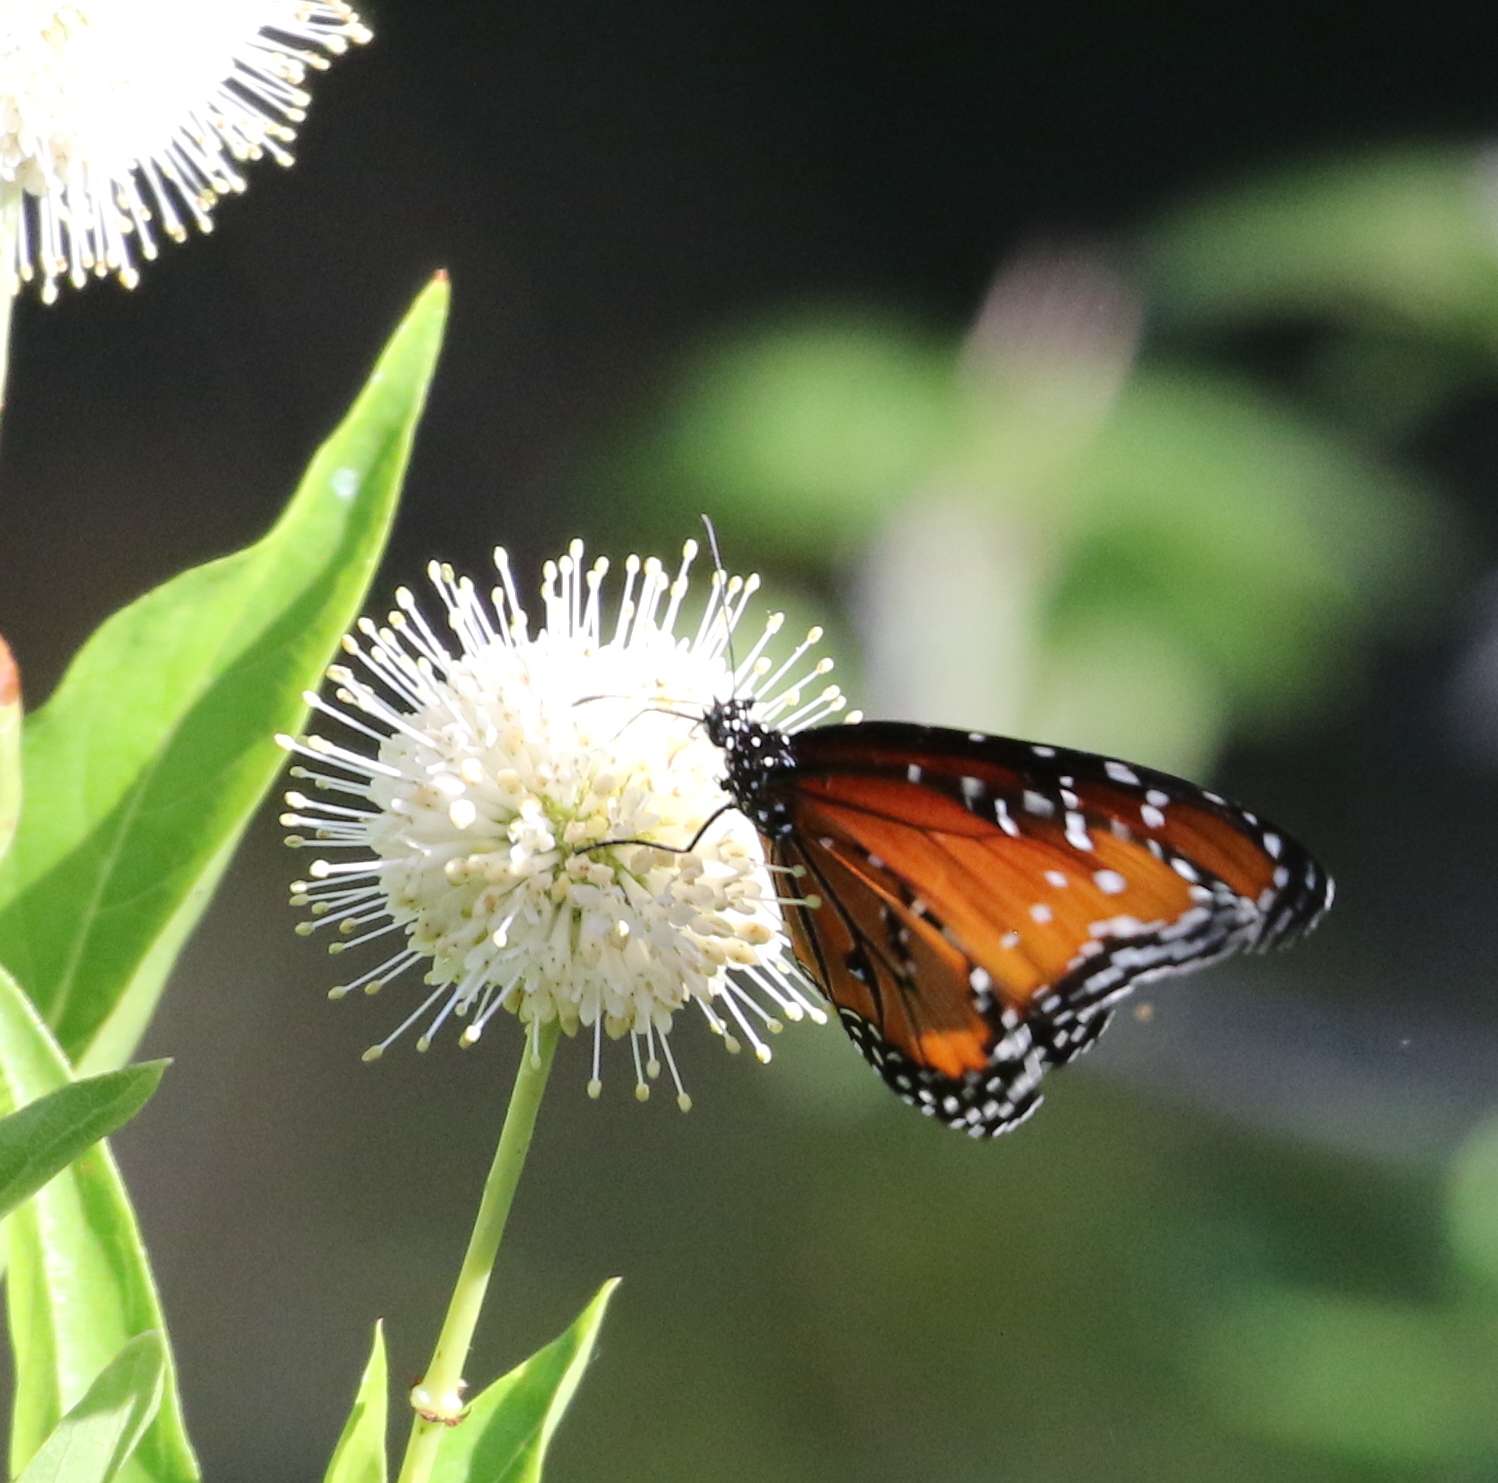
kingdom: Animalia
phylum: Arthropoda
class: Insecta
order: Lepidoptera
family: Nymphalidae
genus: Danaus
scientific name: Danaus gilippus
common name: Queen
